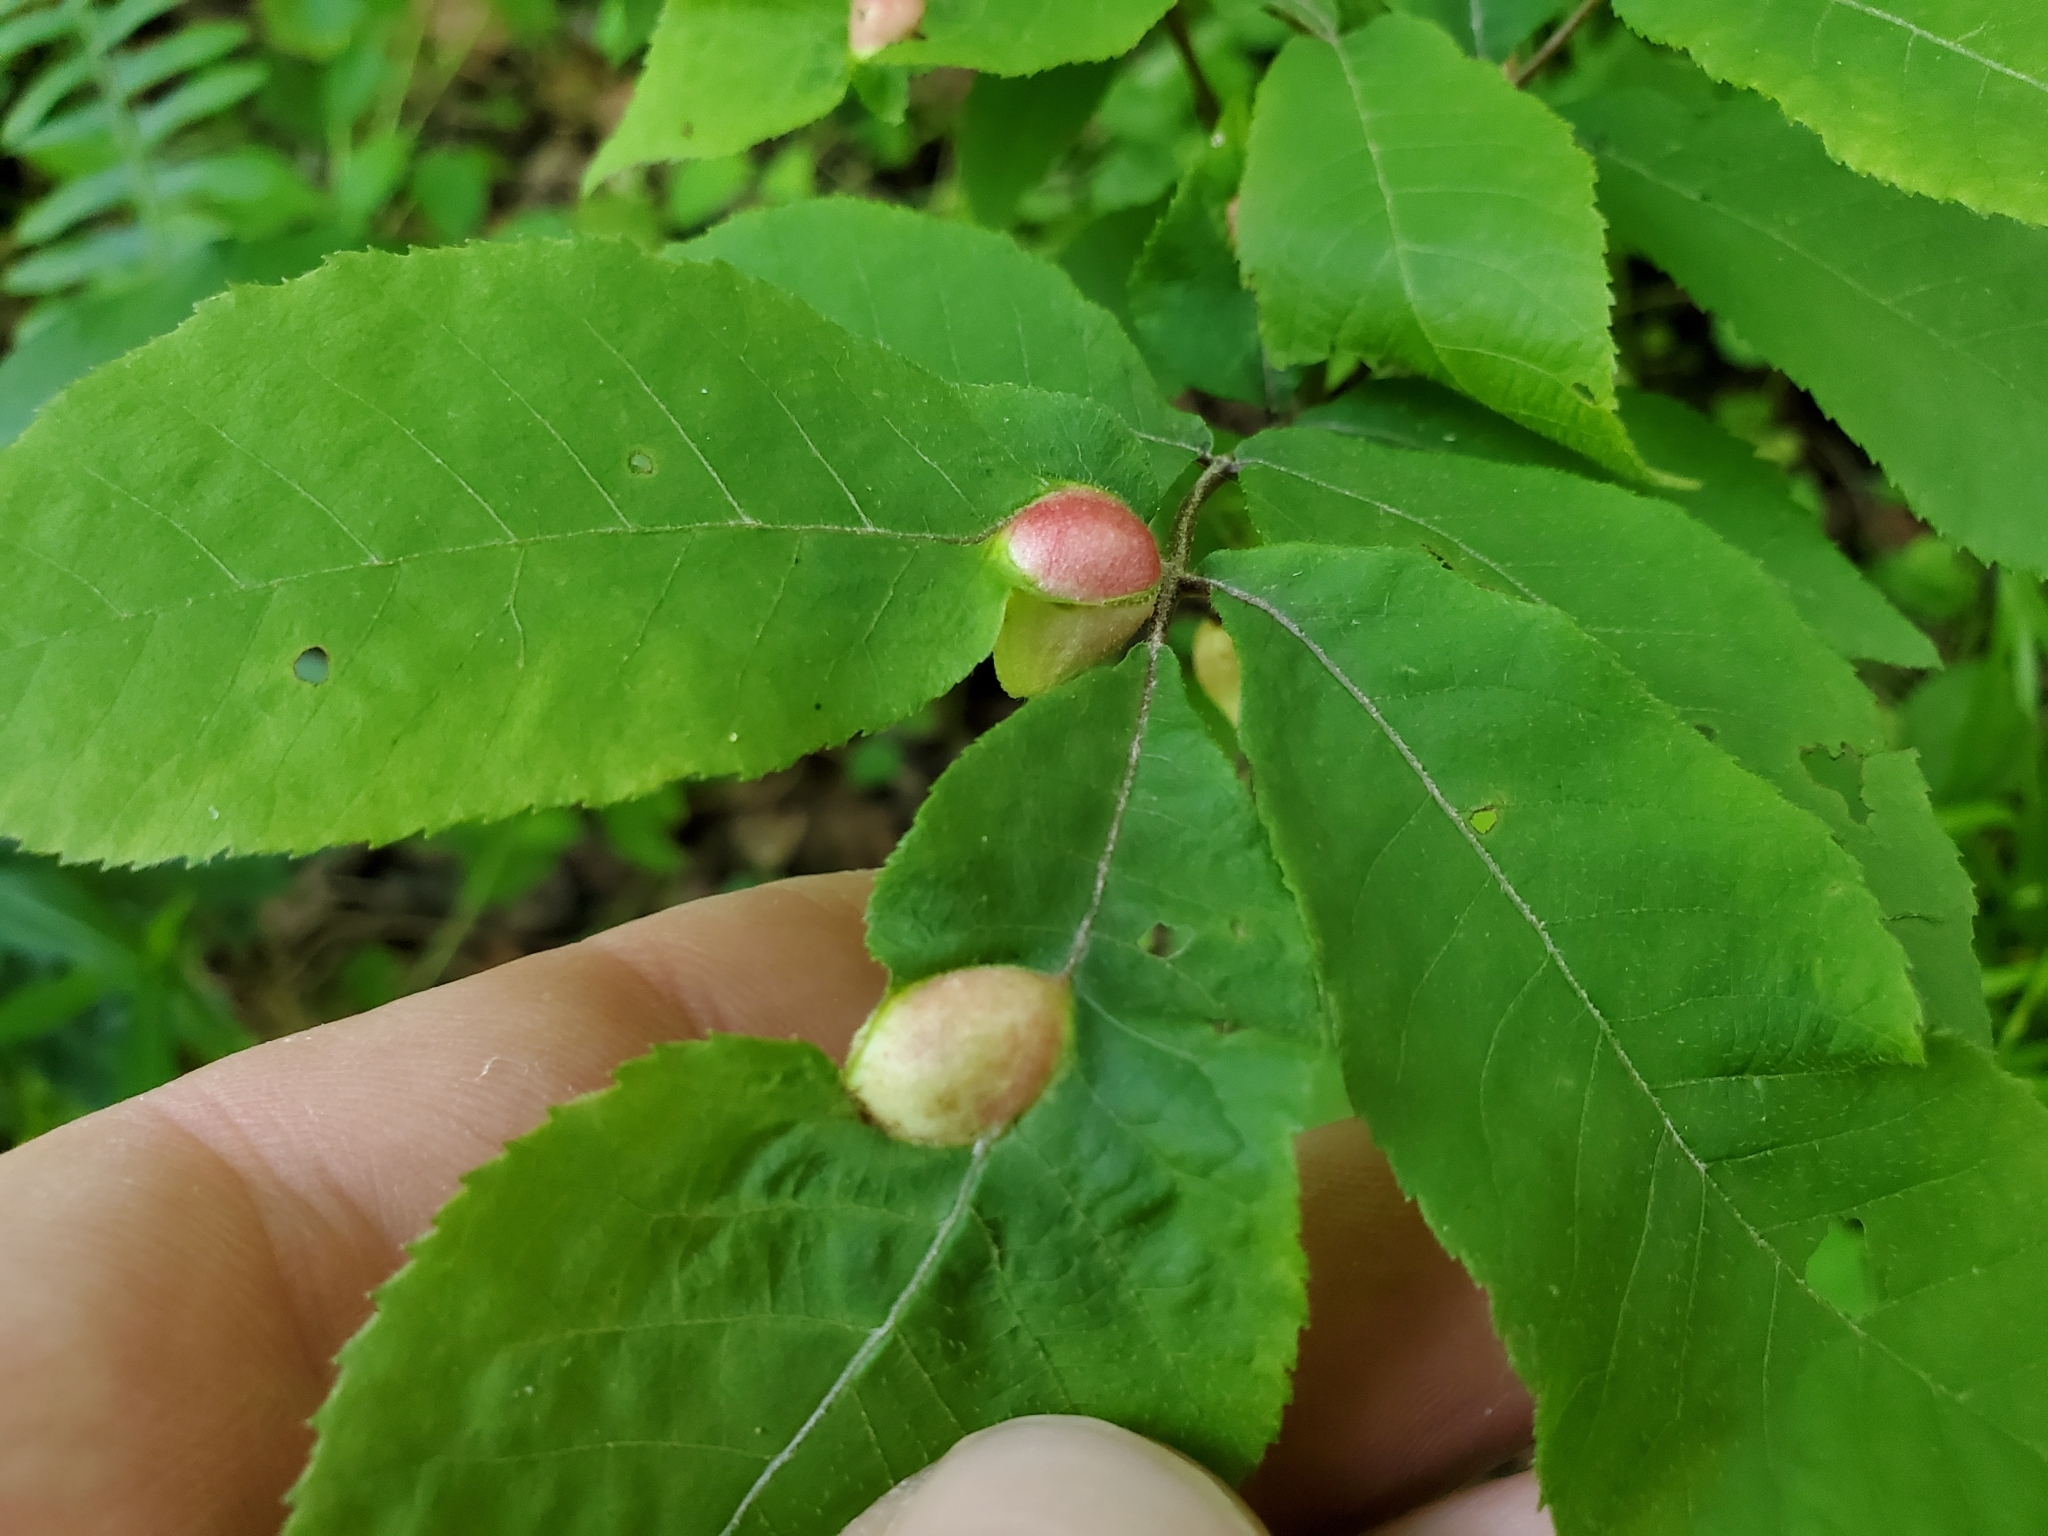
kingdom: Animalia
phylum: Arthropoda
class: Insecta
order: Hemiptera
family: Phylloxeridae
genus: Phylloxera
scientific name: Phylloxera
